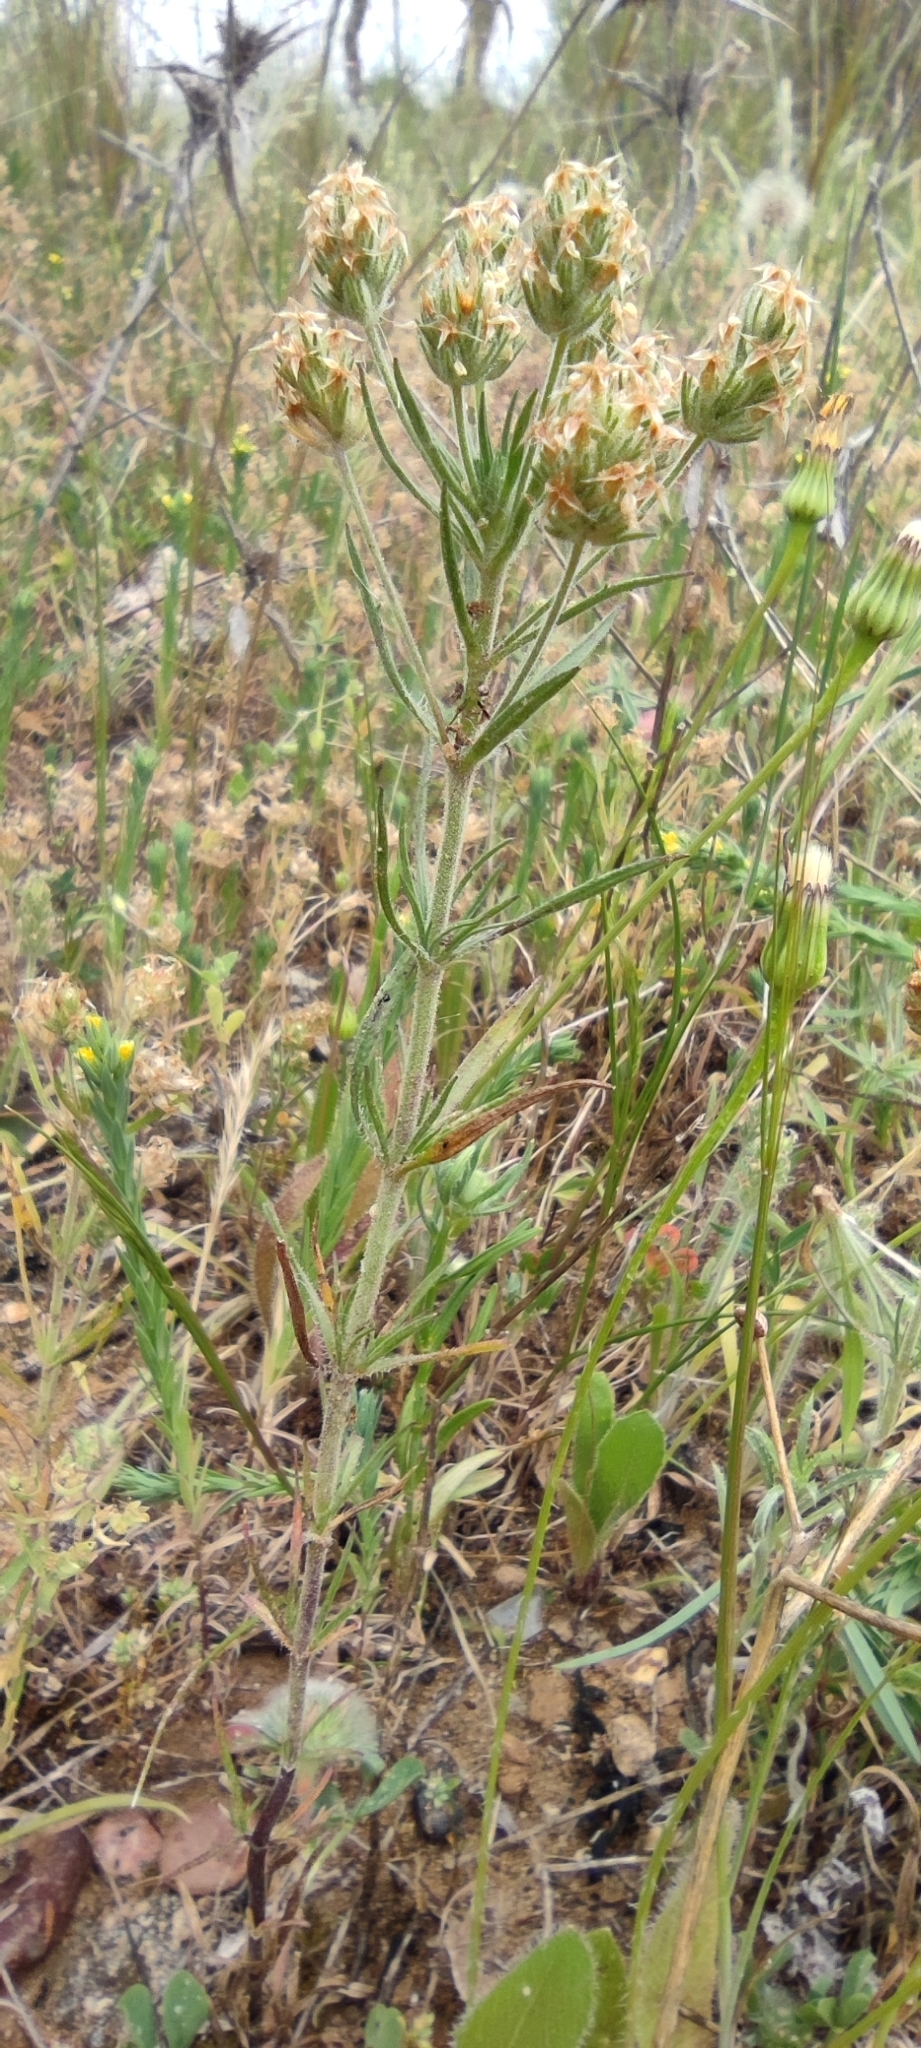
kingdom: Plantae
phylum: Tracheophyta
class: Magnoliopsida
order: Lamiales
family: Plantaginaceae
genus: Plantago
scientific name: Plantago afra
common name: Glandular plantain
